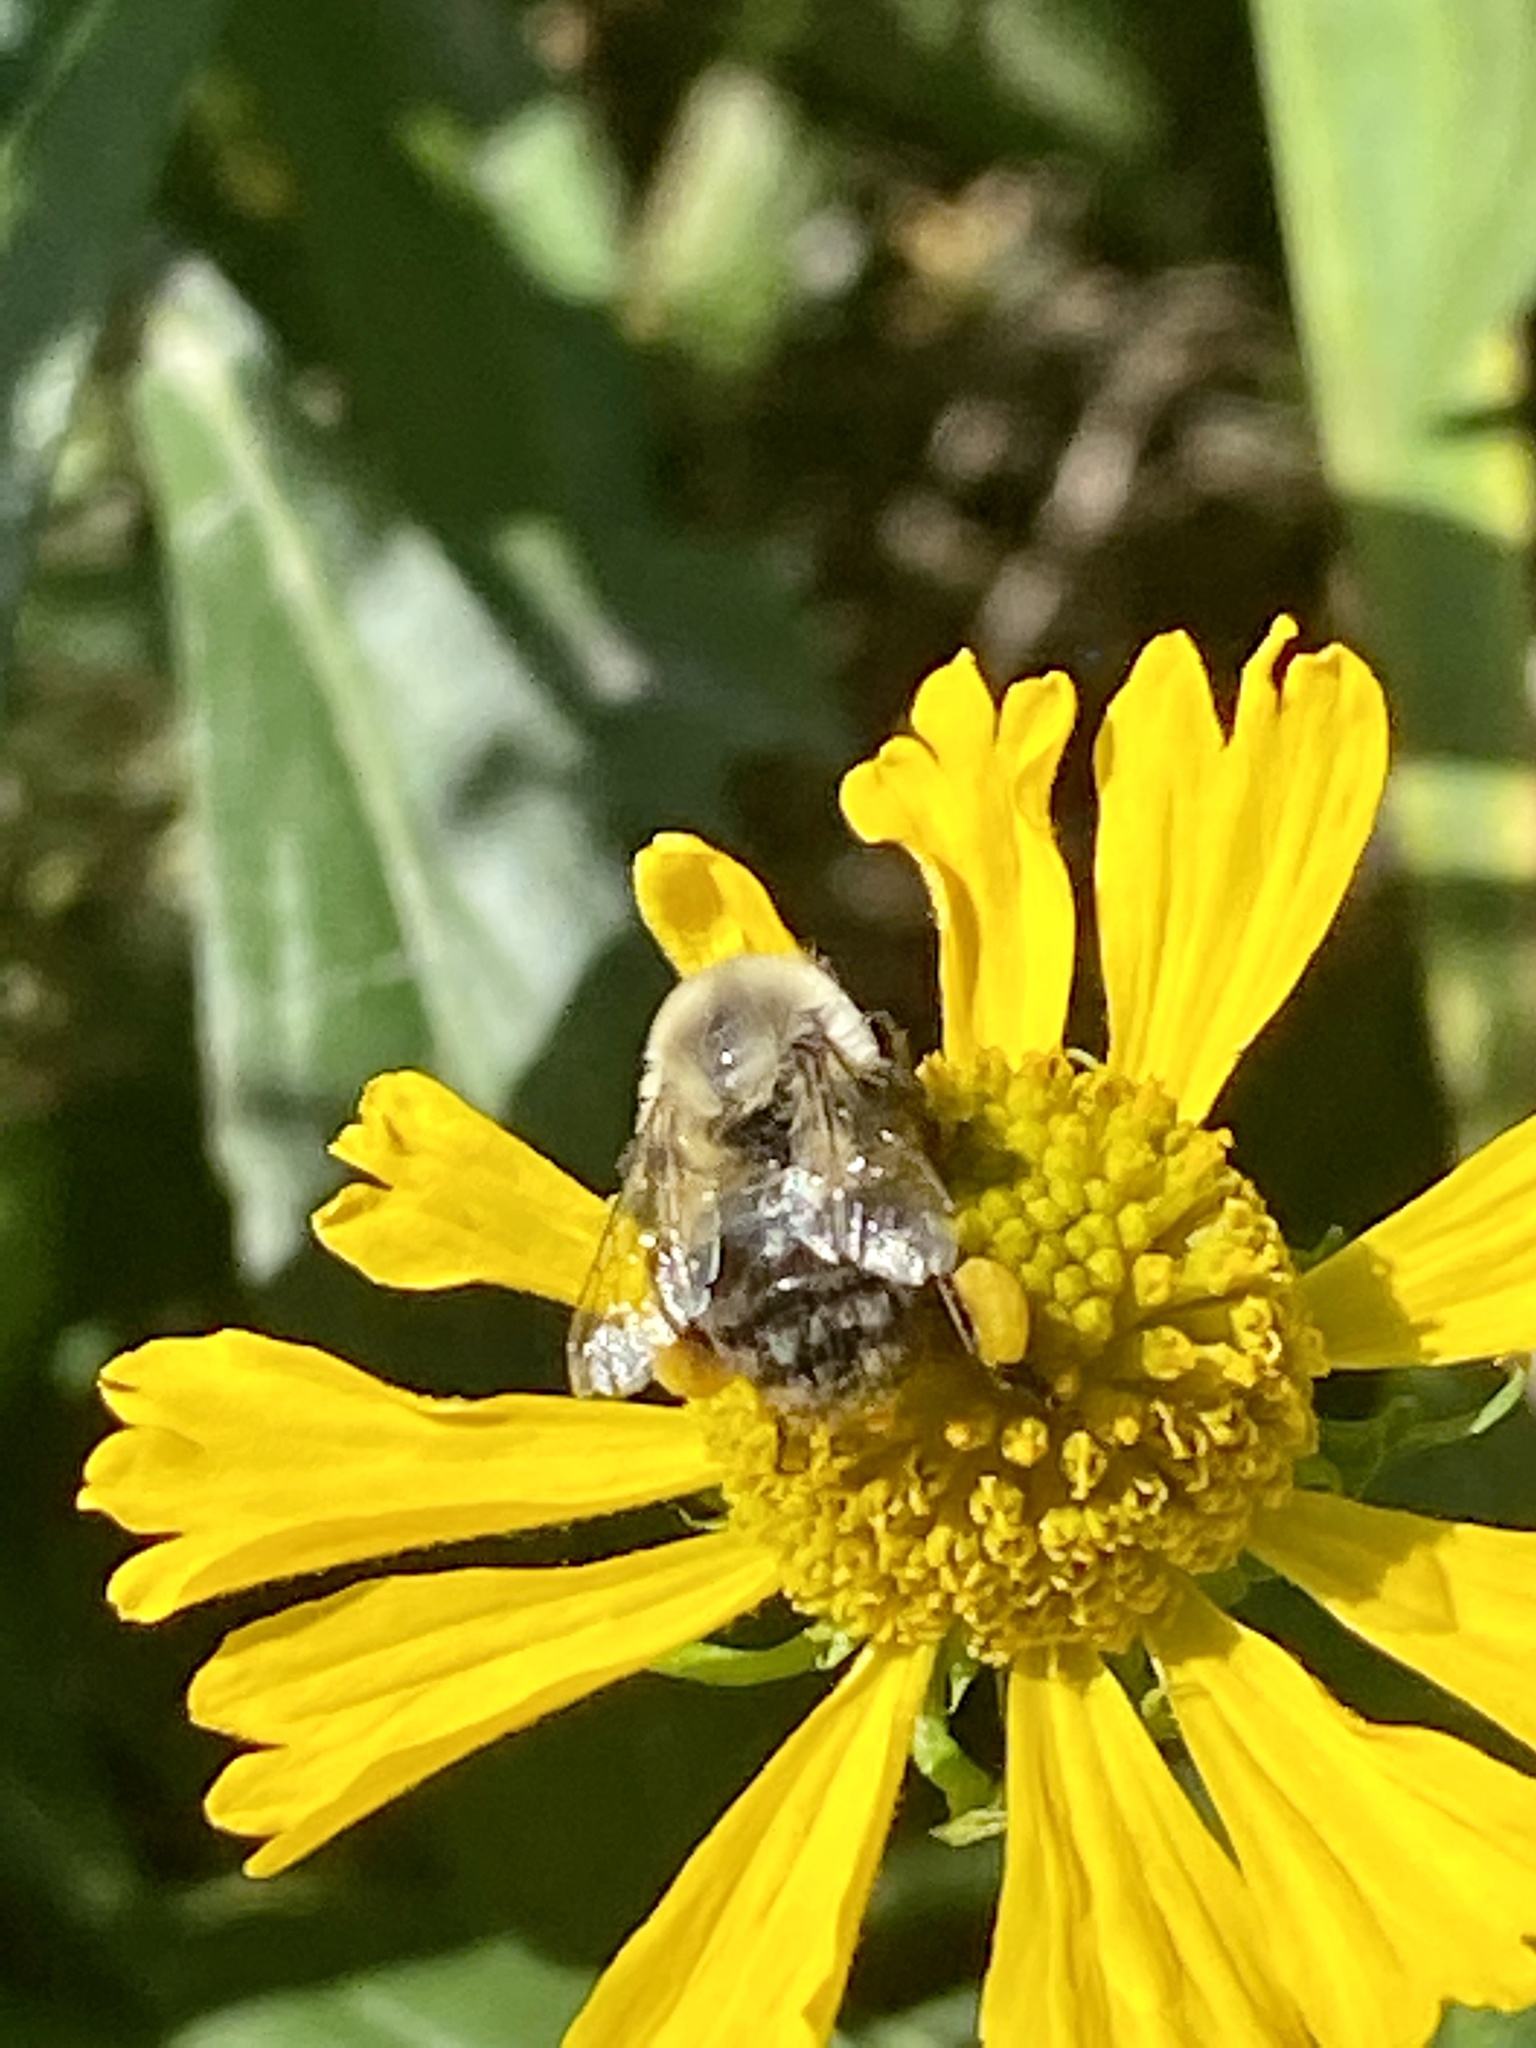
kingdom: Animalia
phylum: Arthropoda
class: Insecta
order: Hymenoptera
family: Apidae
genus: Bombus
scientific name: Bombus impatiens
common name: Common eastern bumble bee
